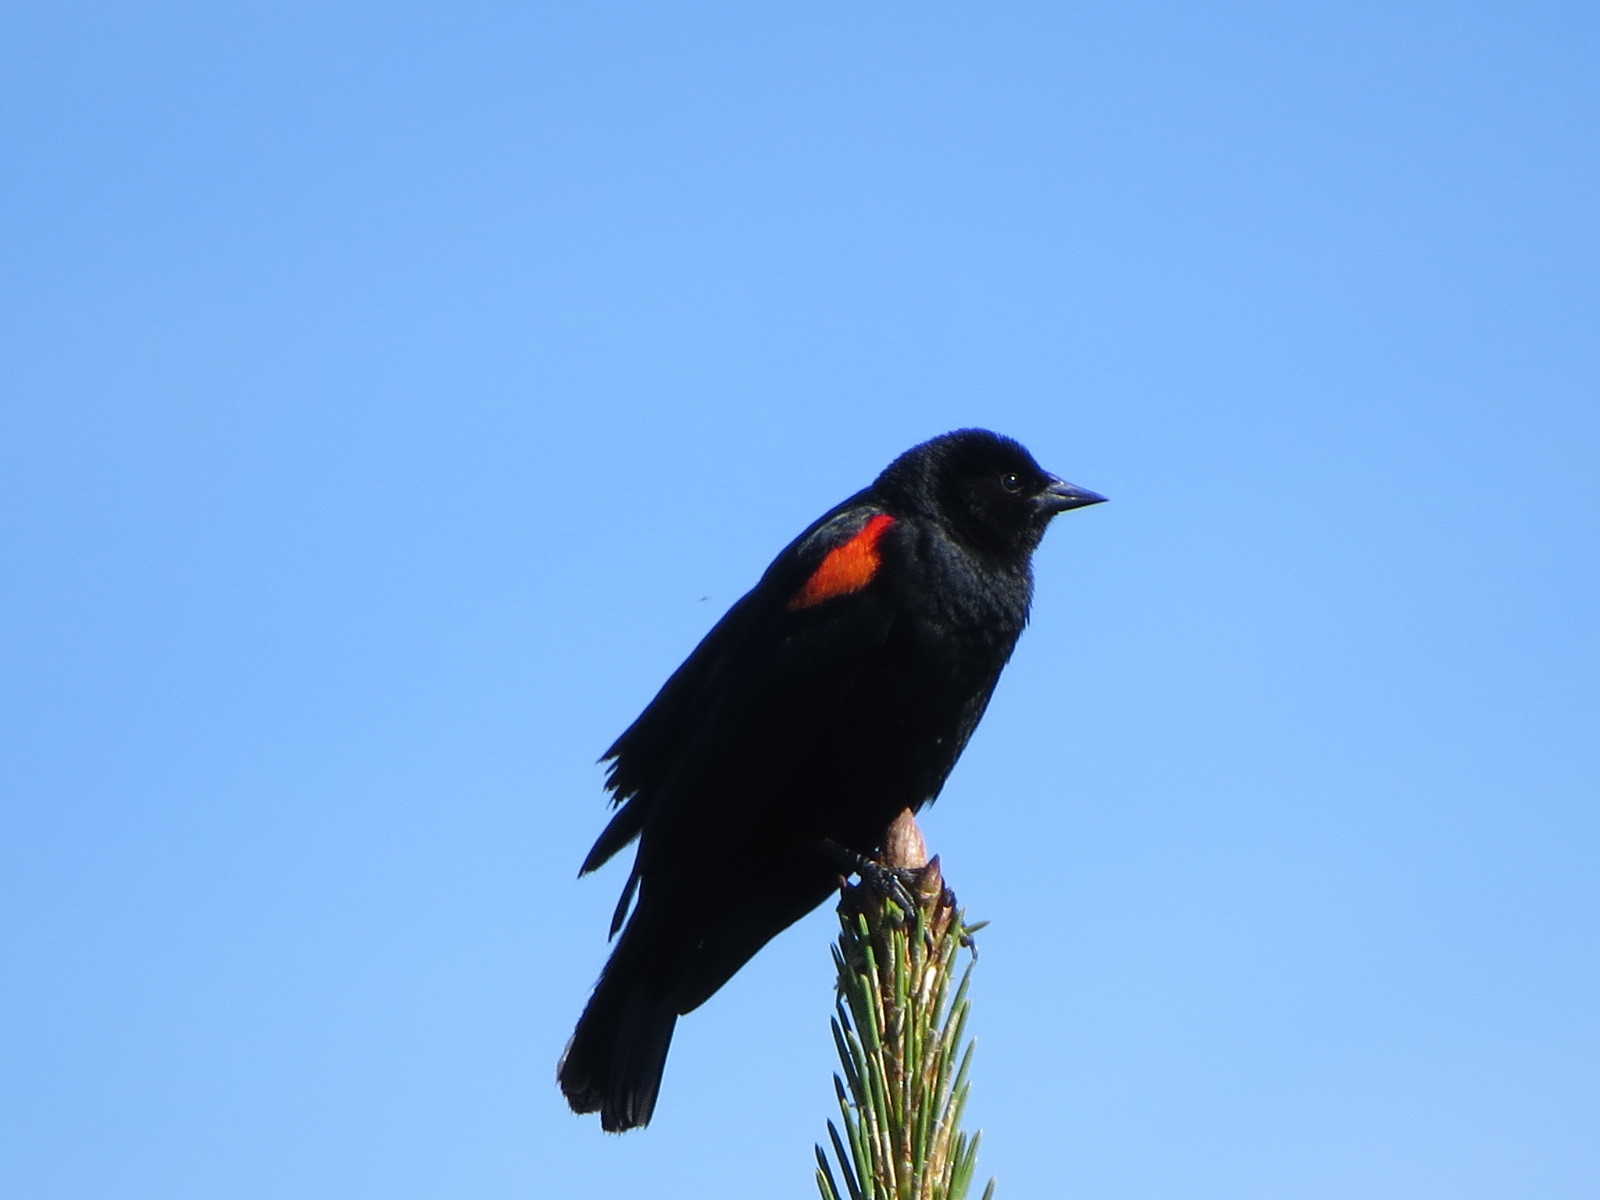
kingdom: Animalia
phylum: Chordata
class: Aves
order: Passeriformes
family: Icteridae
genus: Agelaius
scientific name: Agelaius phoeniceus
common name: Red-winged blackbird
